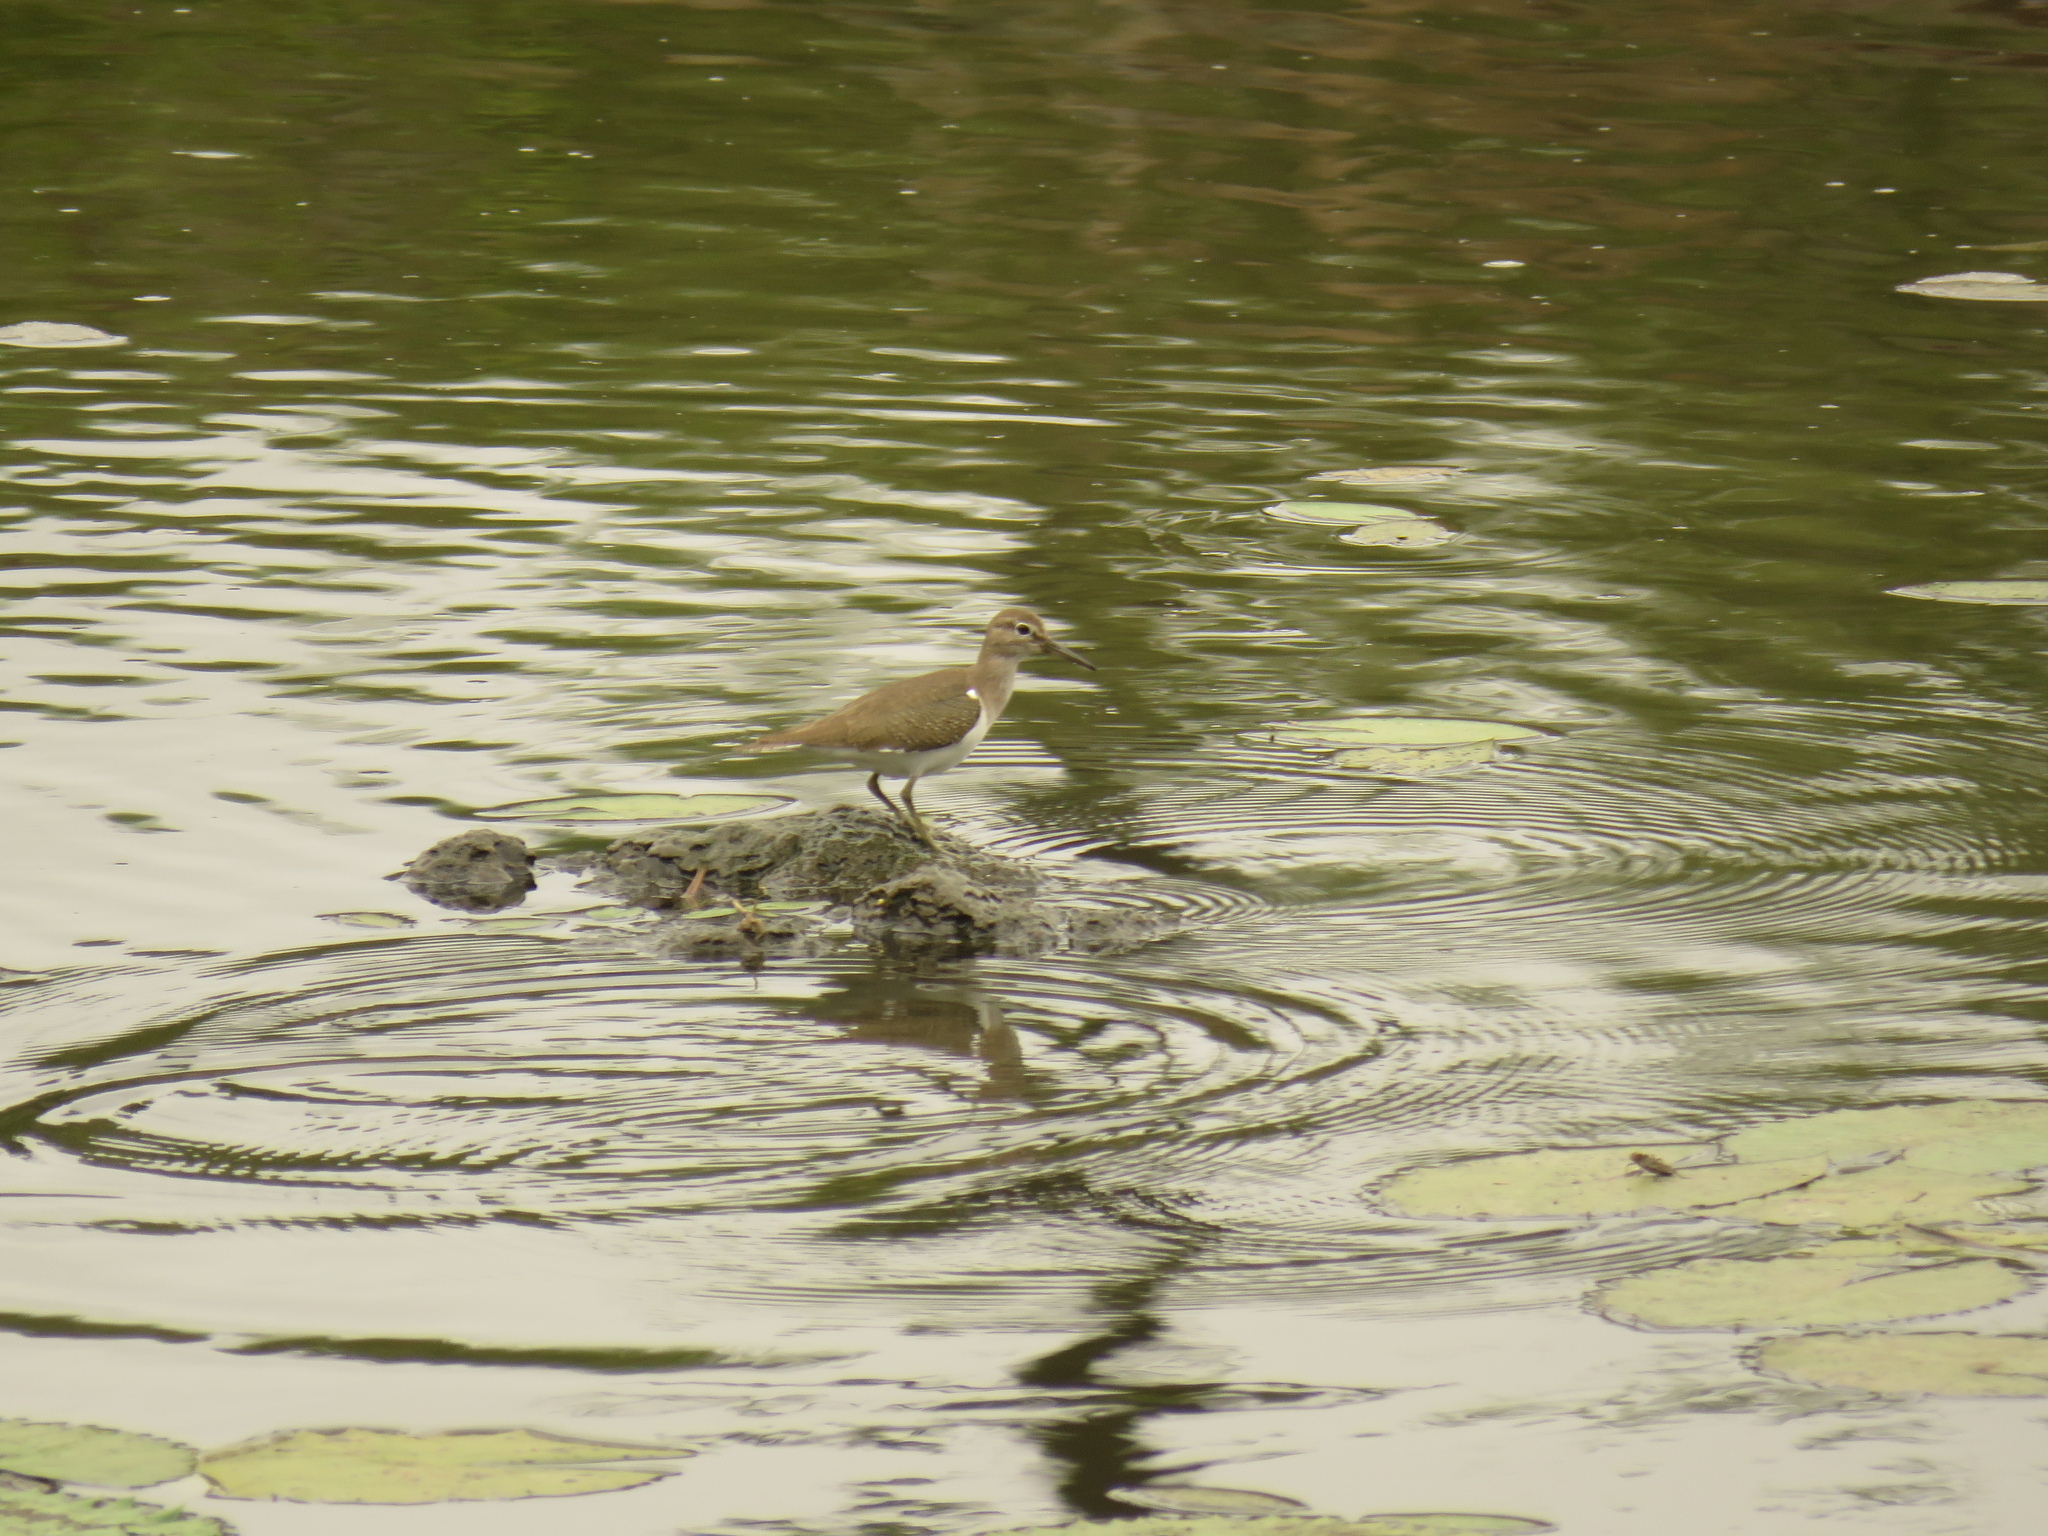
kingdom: Animalia
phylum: Chordata
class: Aves
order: Charadriiformes
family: Scolopacidae
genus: Actitis
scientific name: Actitis hypoleucos
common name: Common sandpiper
